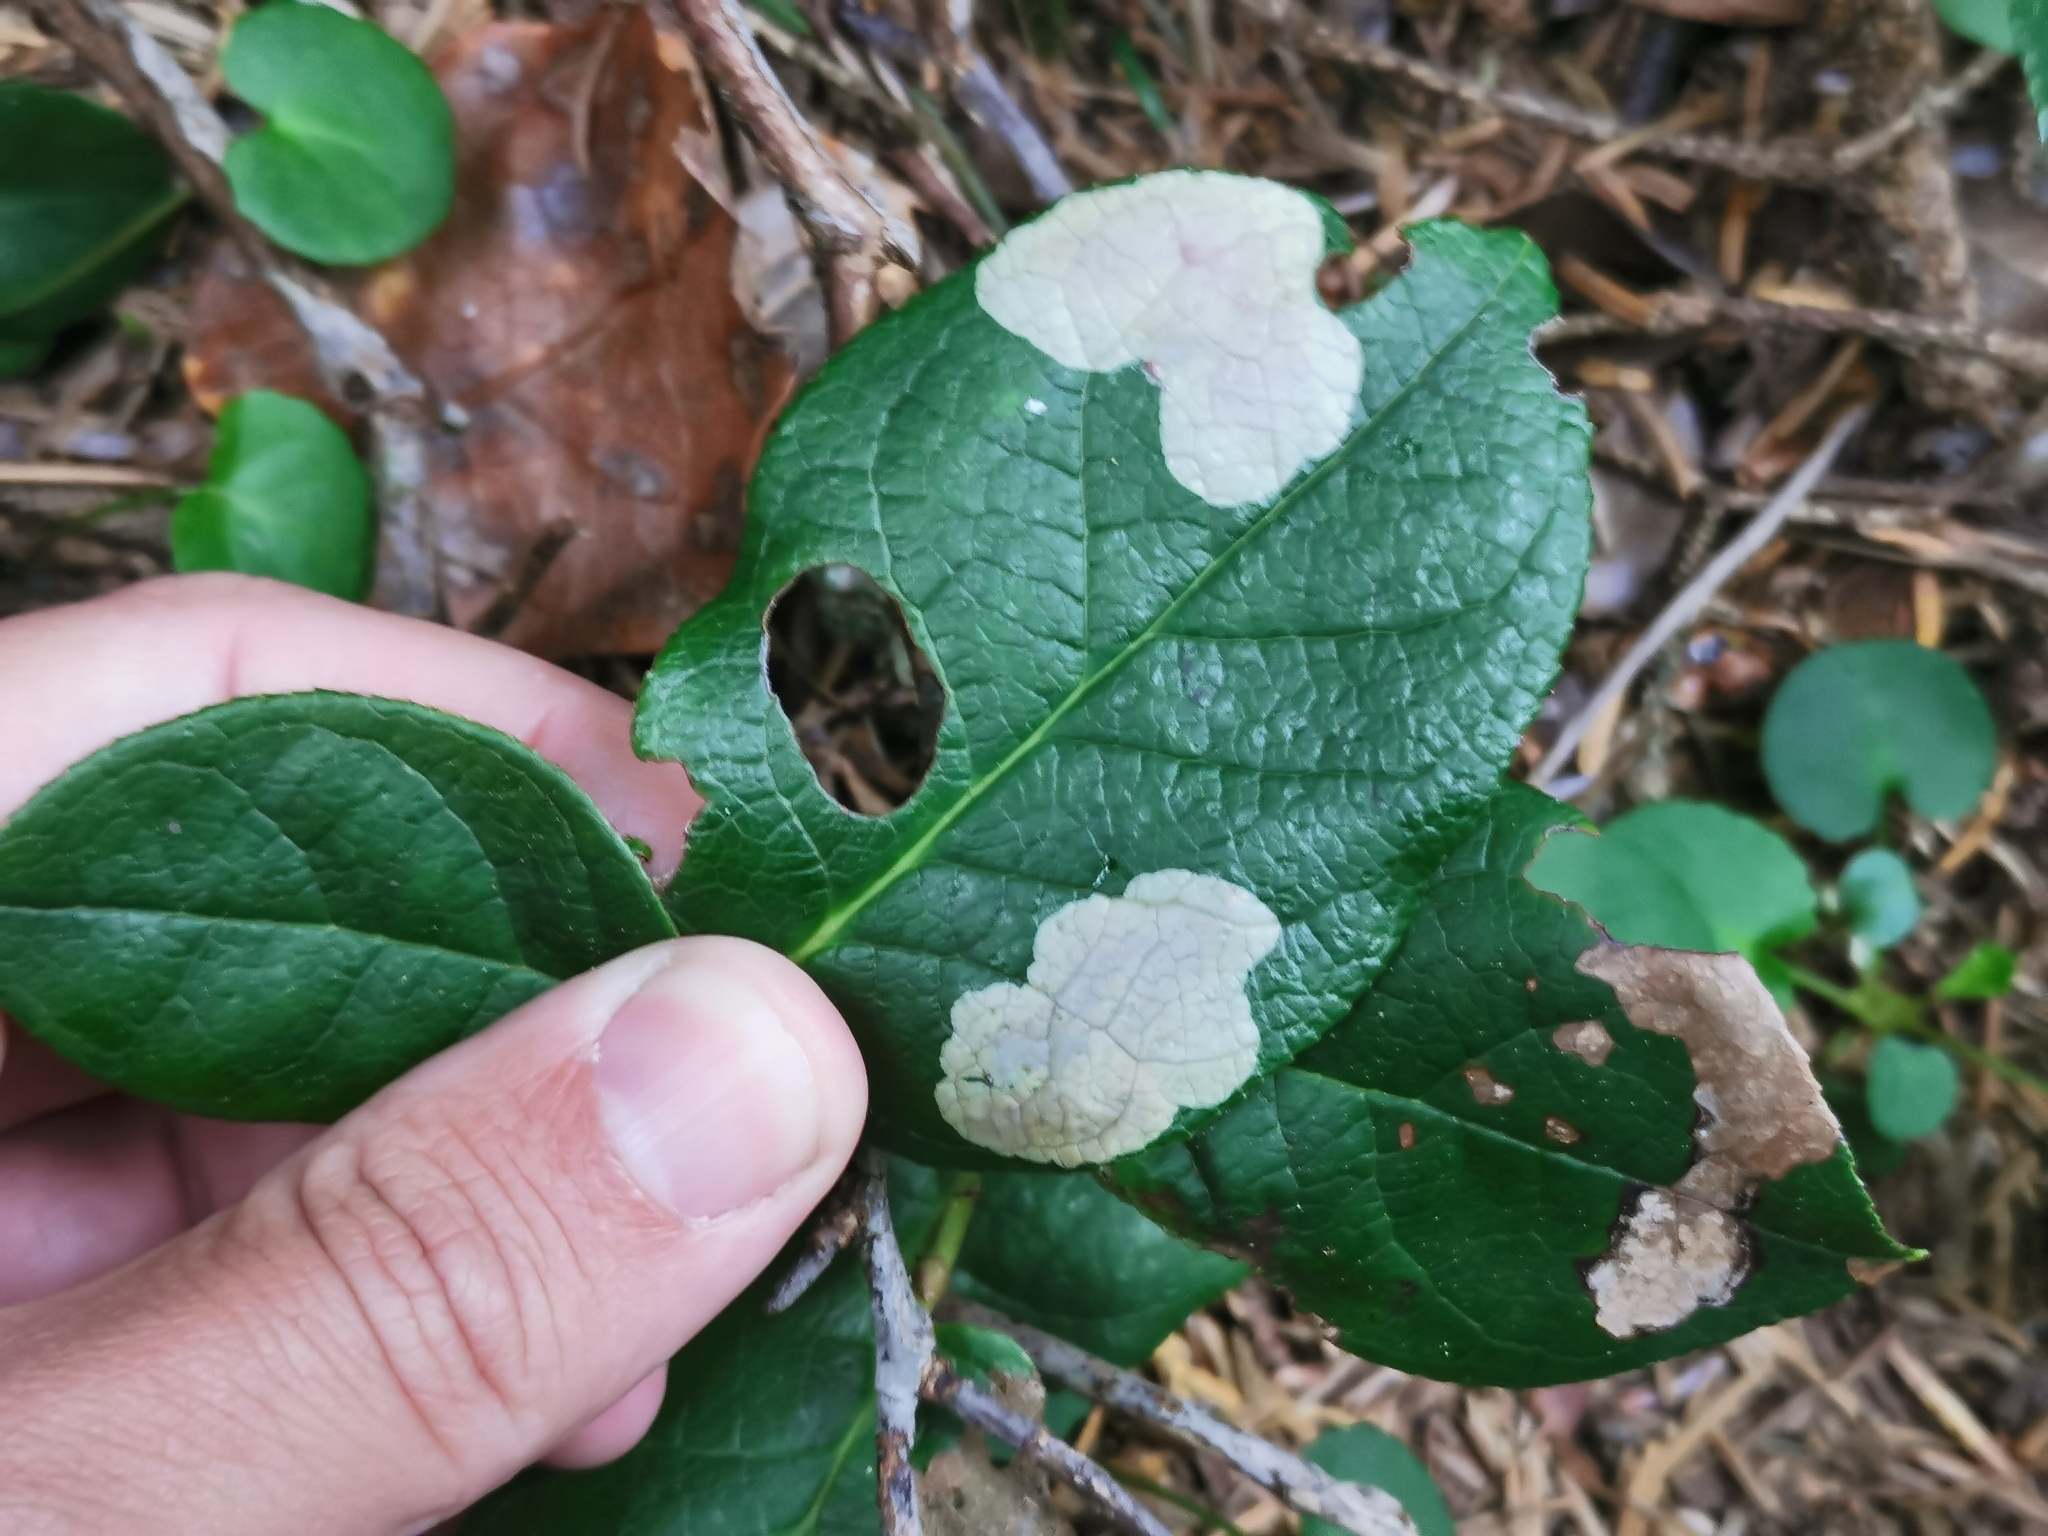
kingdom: Animalia
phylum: Arthropoda
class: Insecta
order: Lepidoptera
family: Gracillariidae
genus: Cameraria
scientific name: Cameraria gaultheriella
